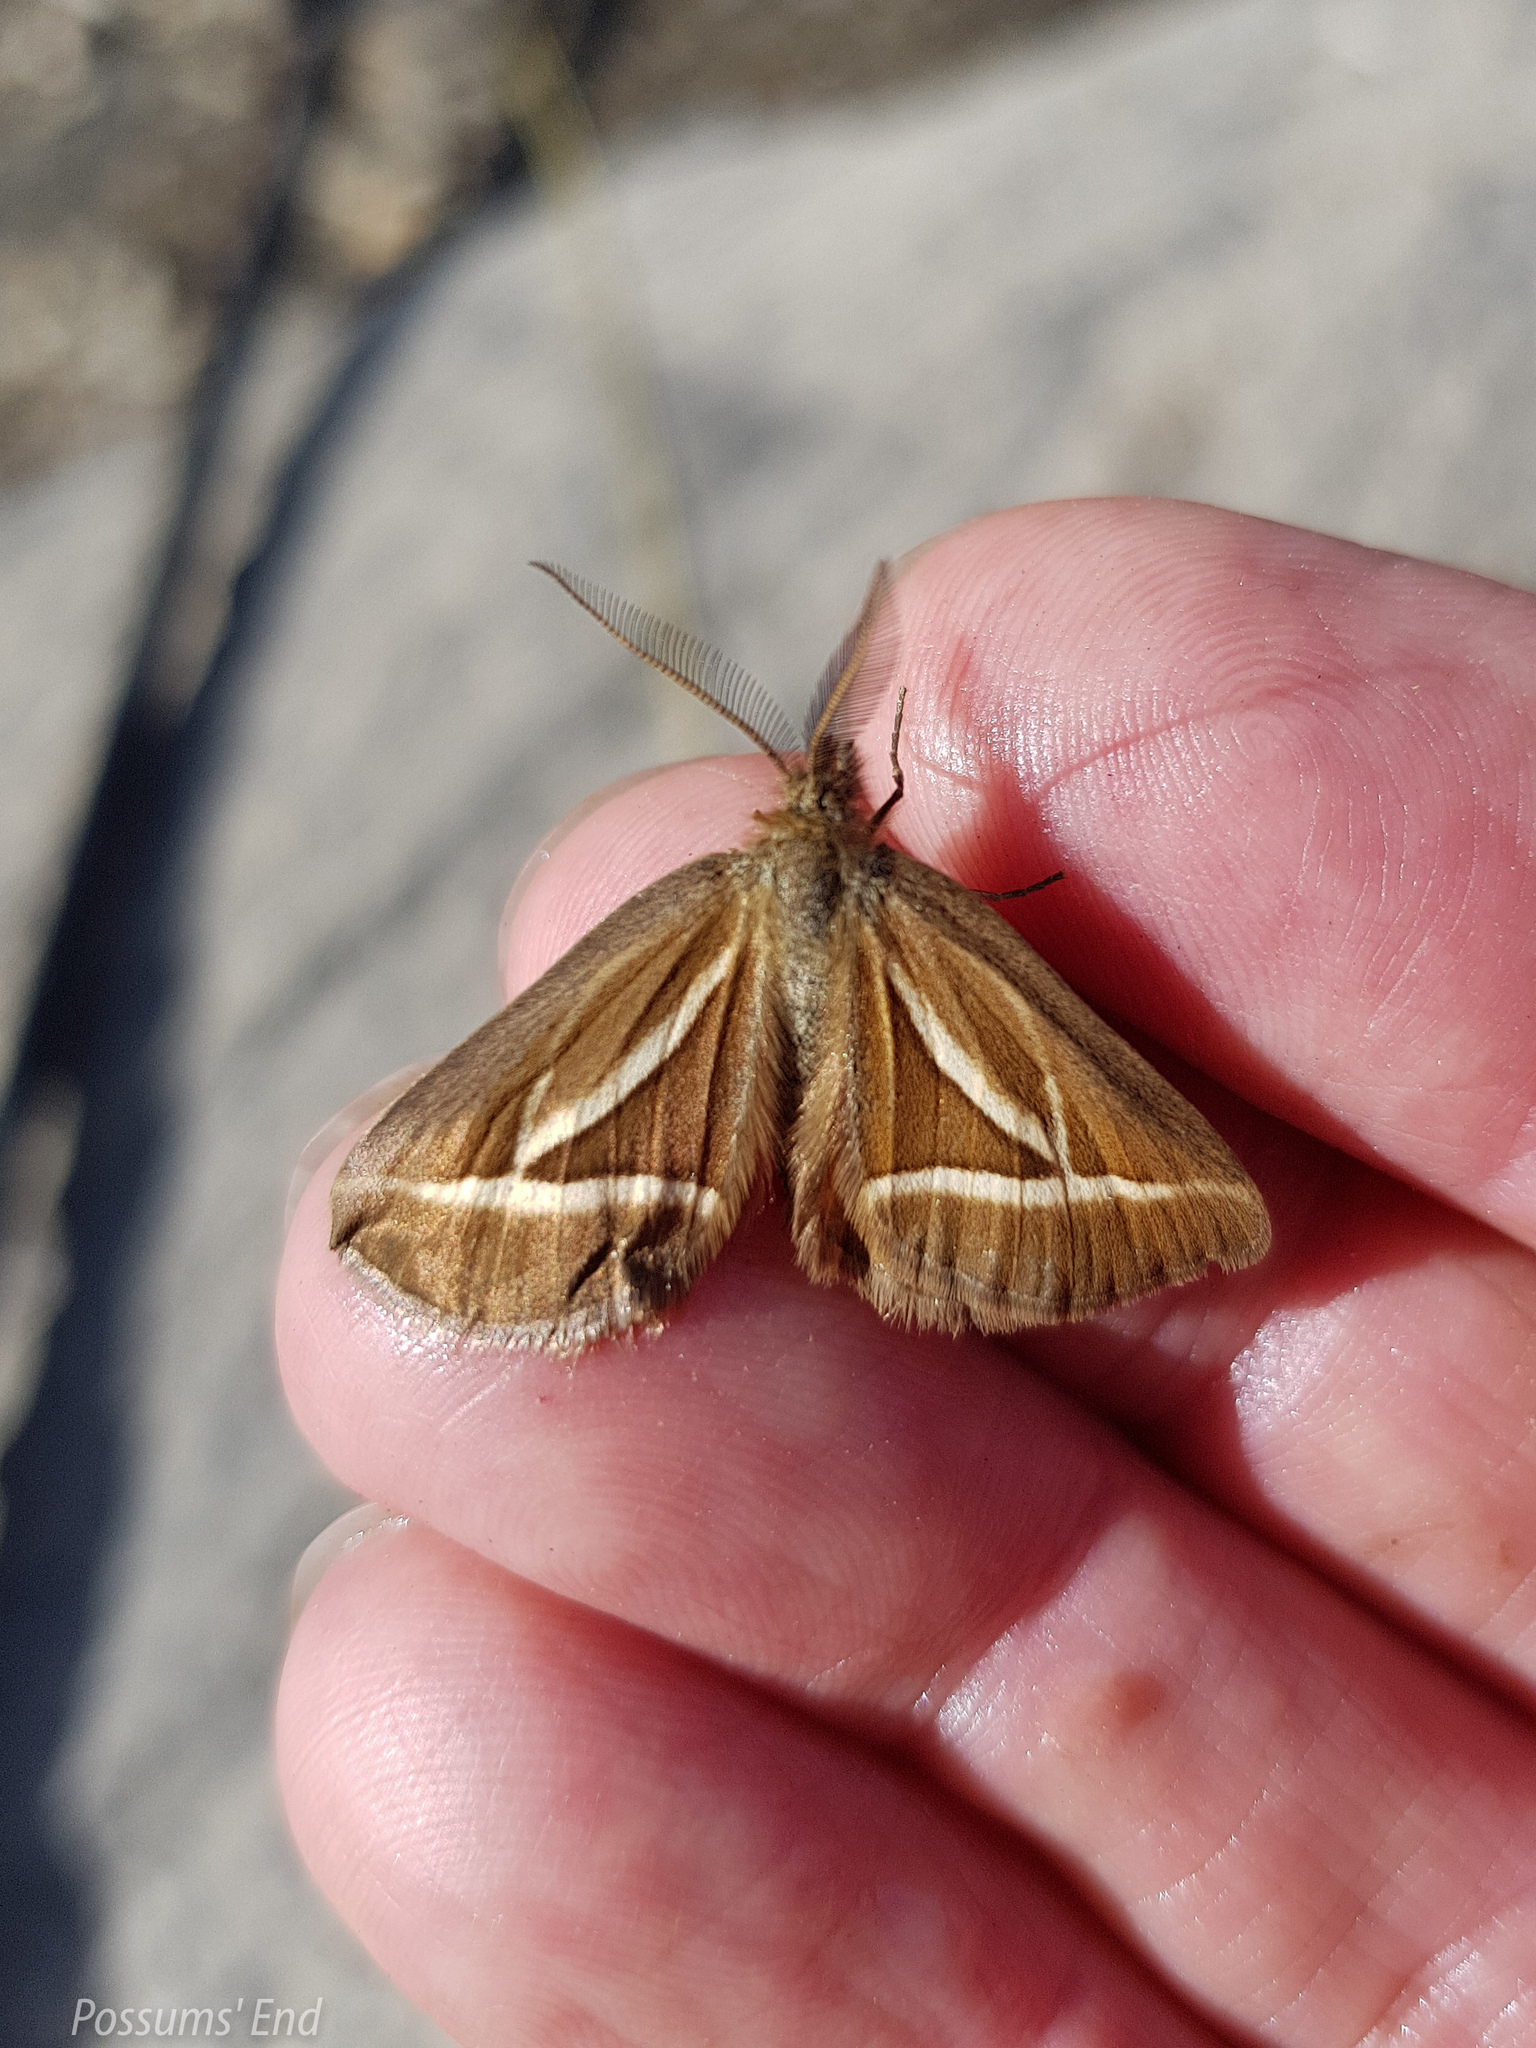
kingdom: Animalia
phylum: Arthropoda
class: Insecta
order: Lepidoptera
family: Geometridae
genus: Aponotoreas
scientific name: Aponotoreas insignis
